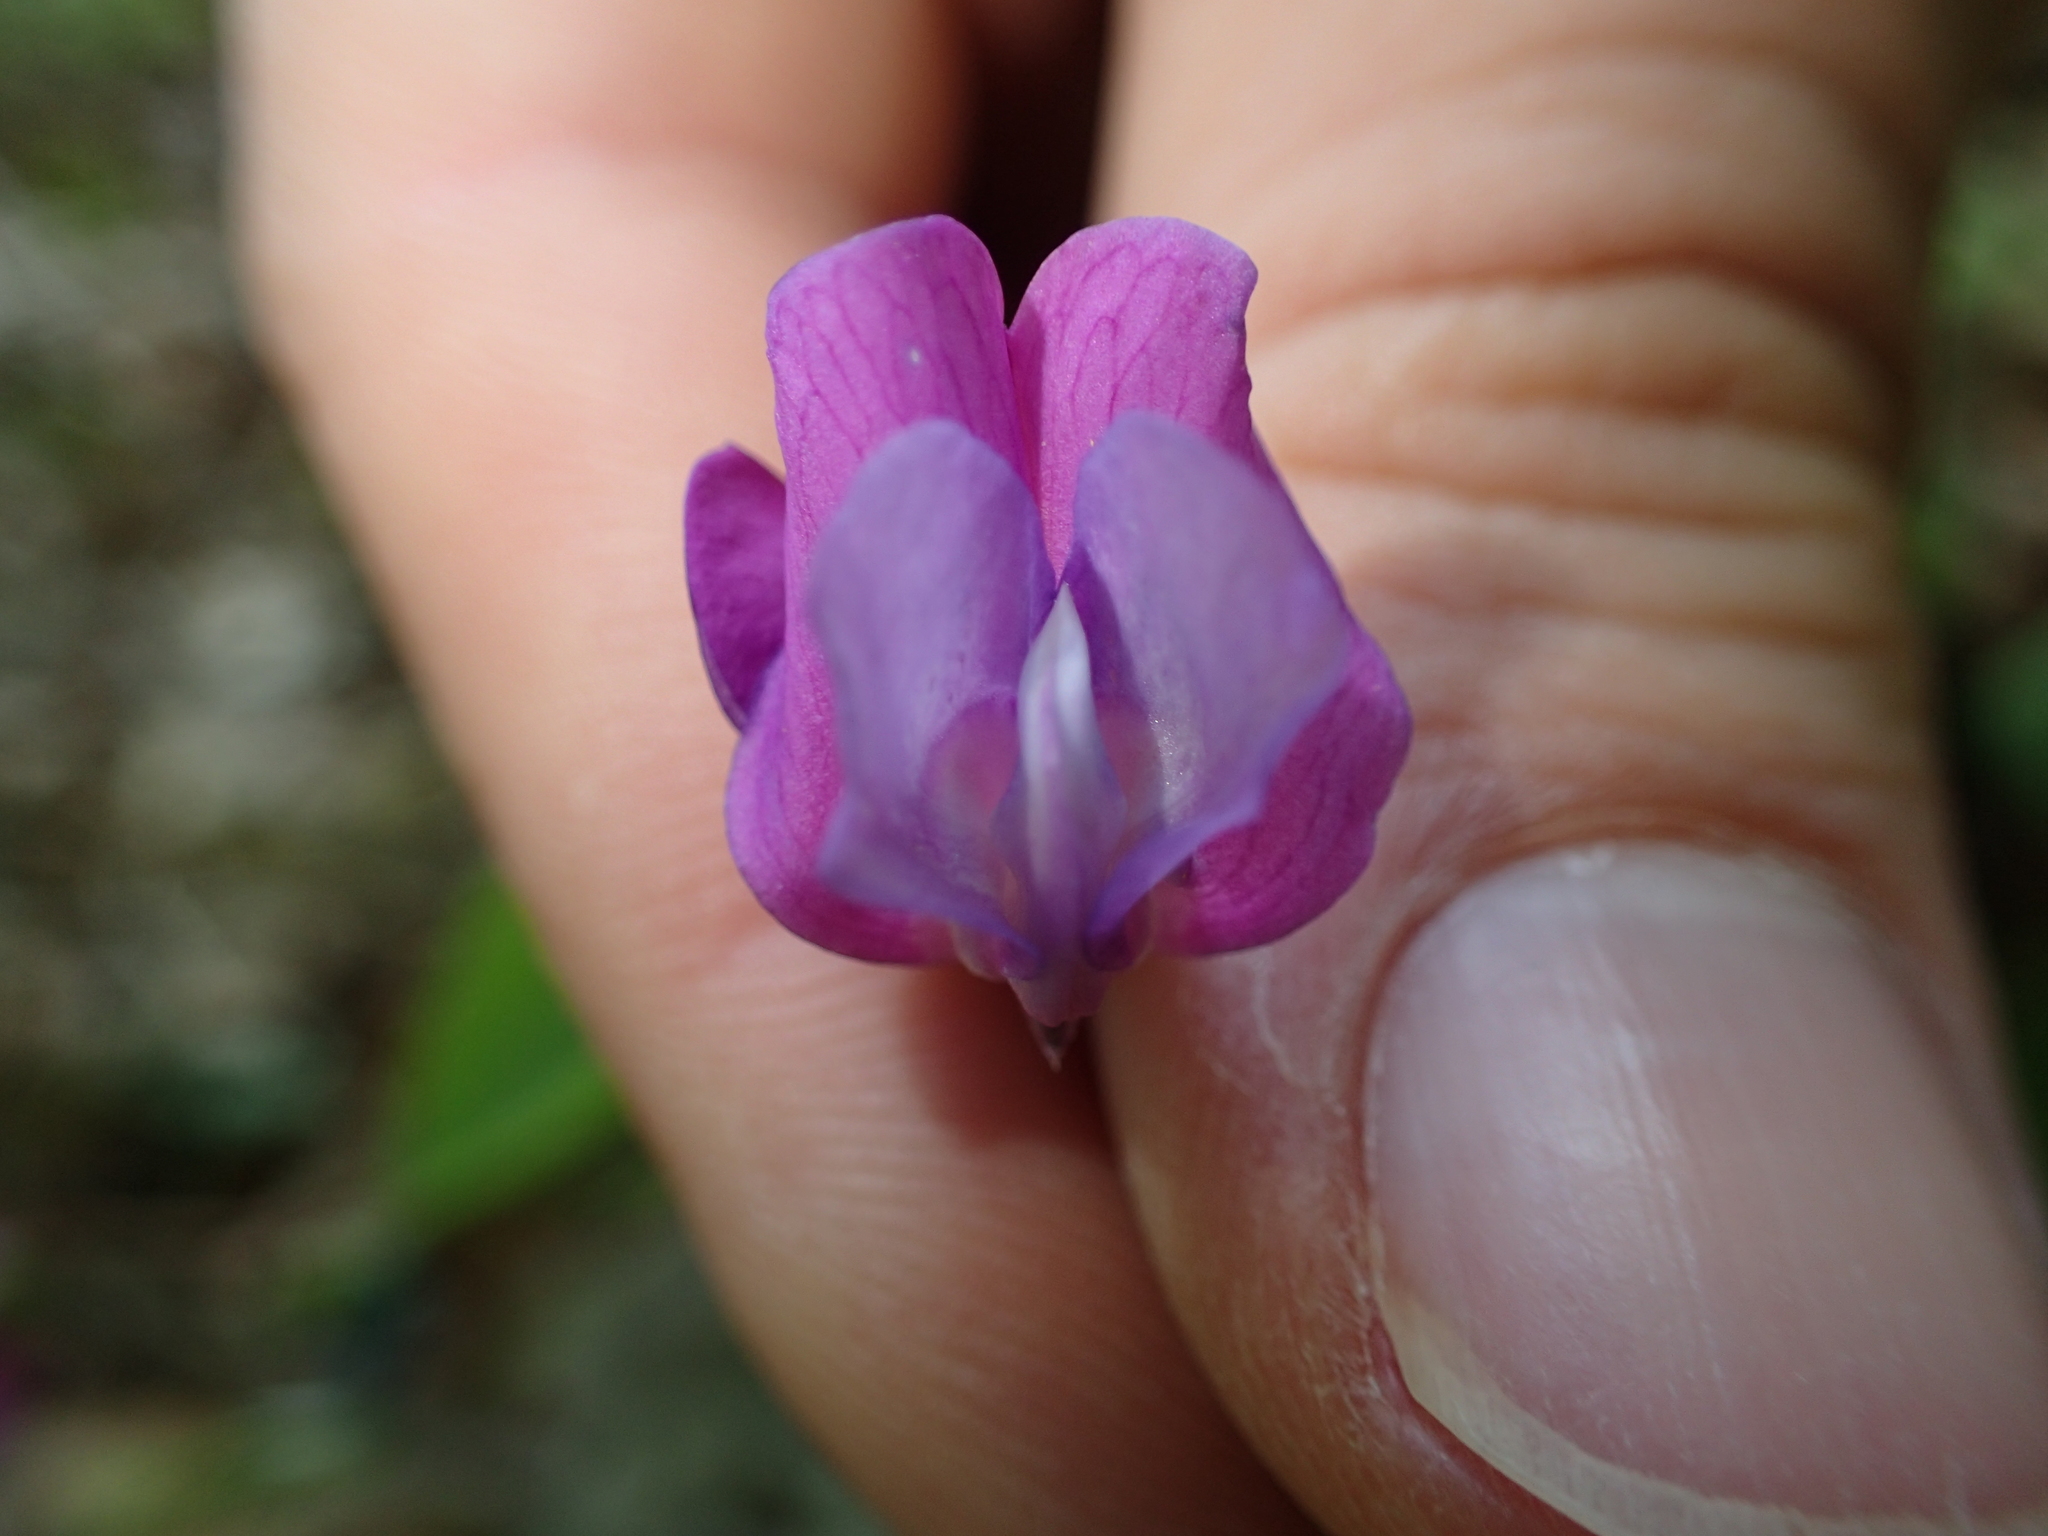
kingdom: Plantae
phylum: Tracheophyta
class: Magnoliopsida
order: Fabales
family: Fabaceae
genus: Lathyrus
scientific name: Lathyrus vernus
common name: Spring pea
